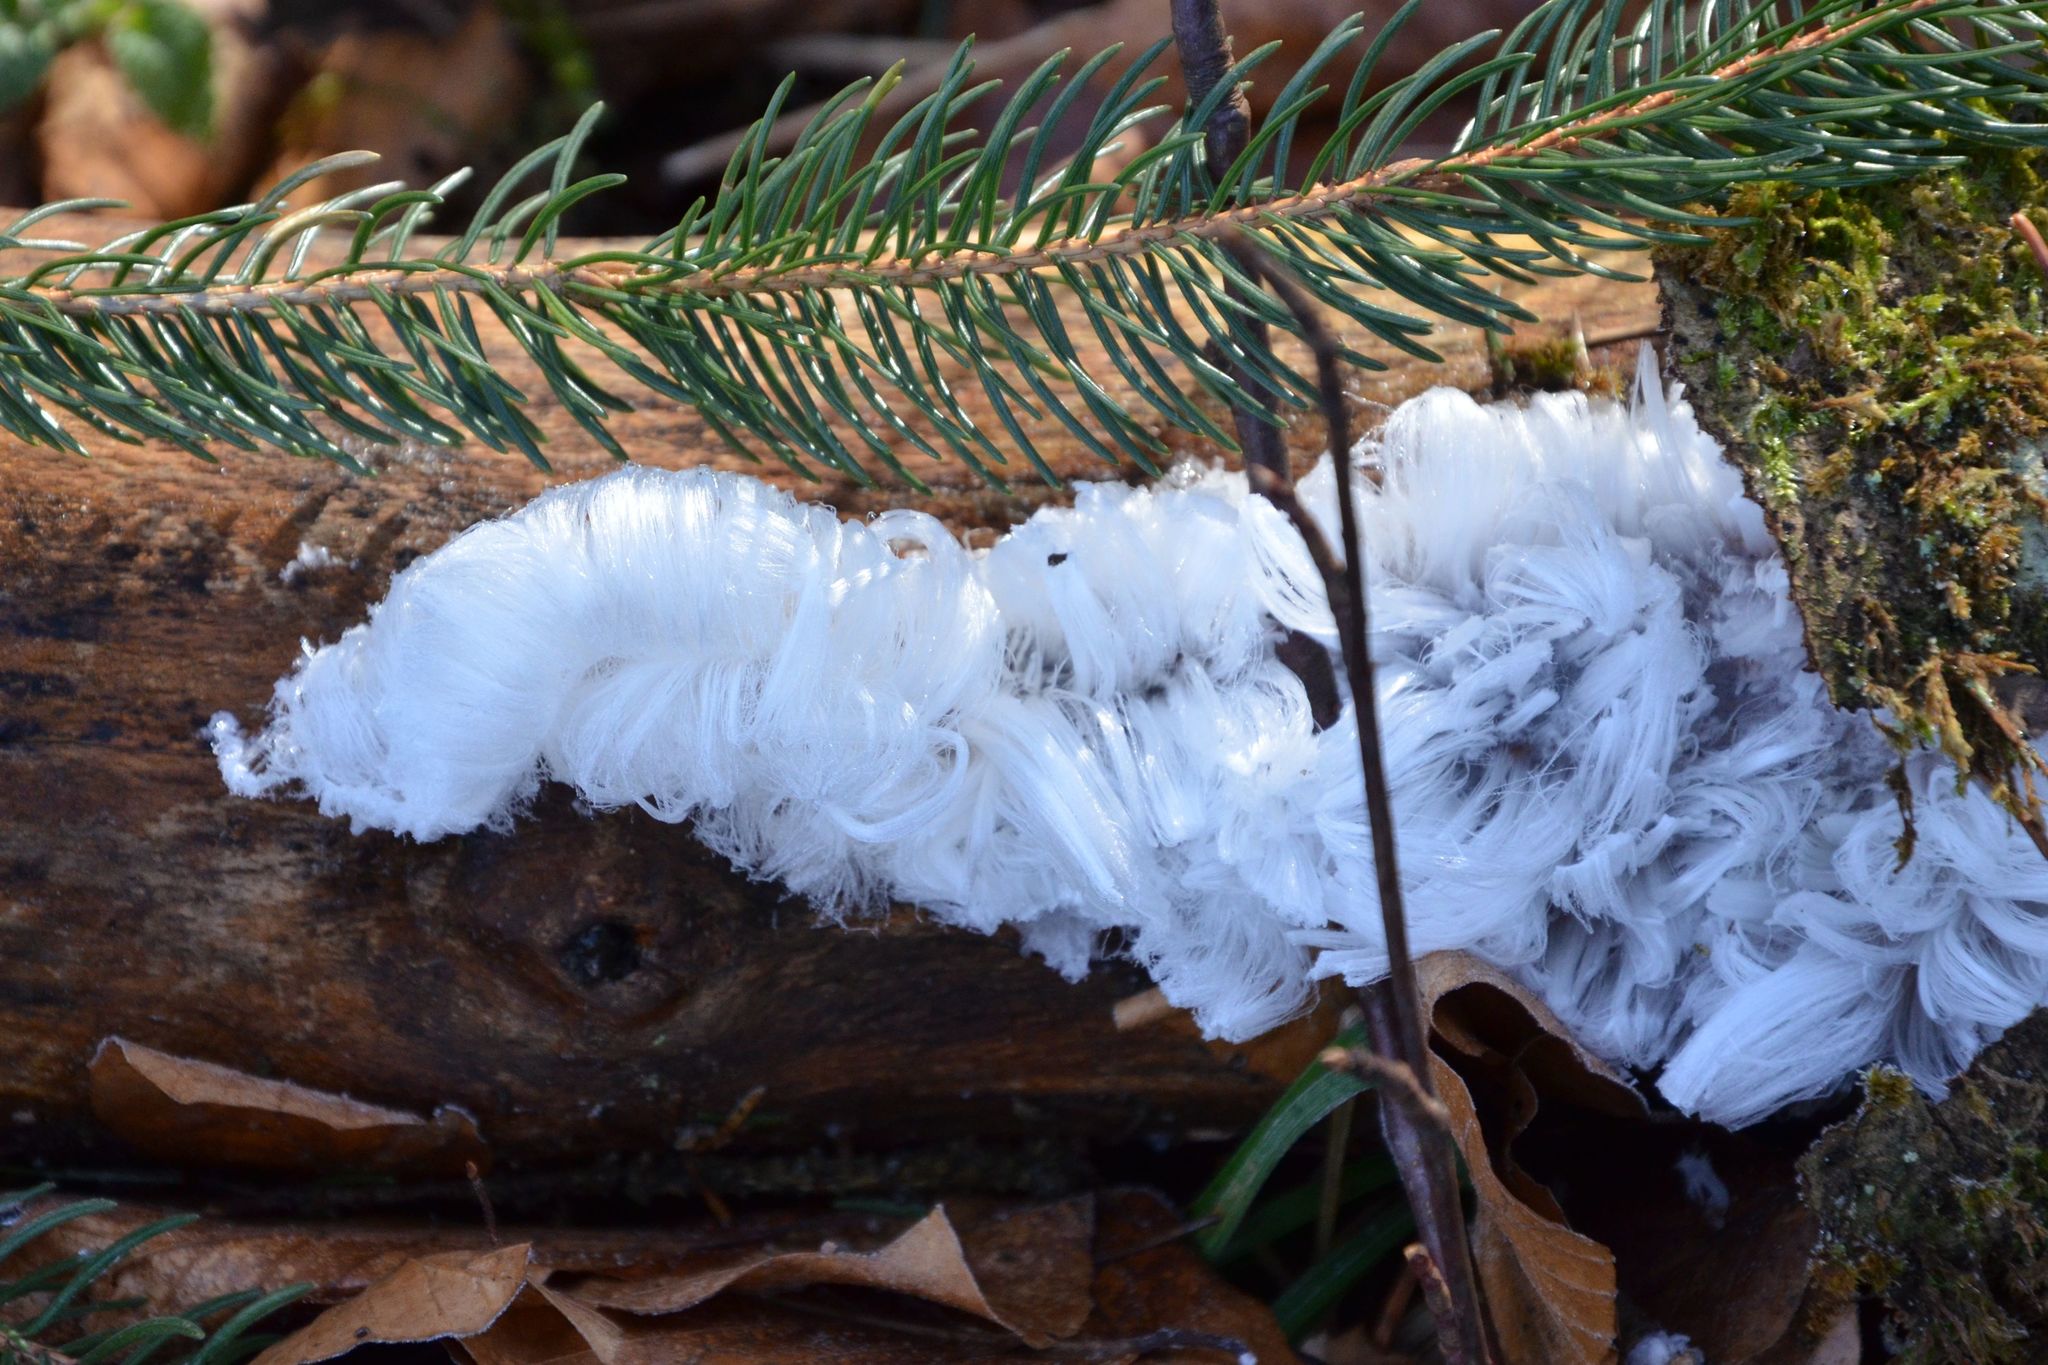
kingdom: Fungi
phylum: Basidiomycota
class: Agaricomycetes
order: Auriculariales
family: Auriculariaceae
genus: Exidiopsis
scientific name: Exidiopsis effusa
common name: Hair ice crust
